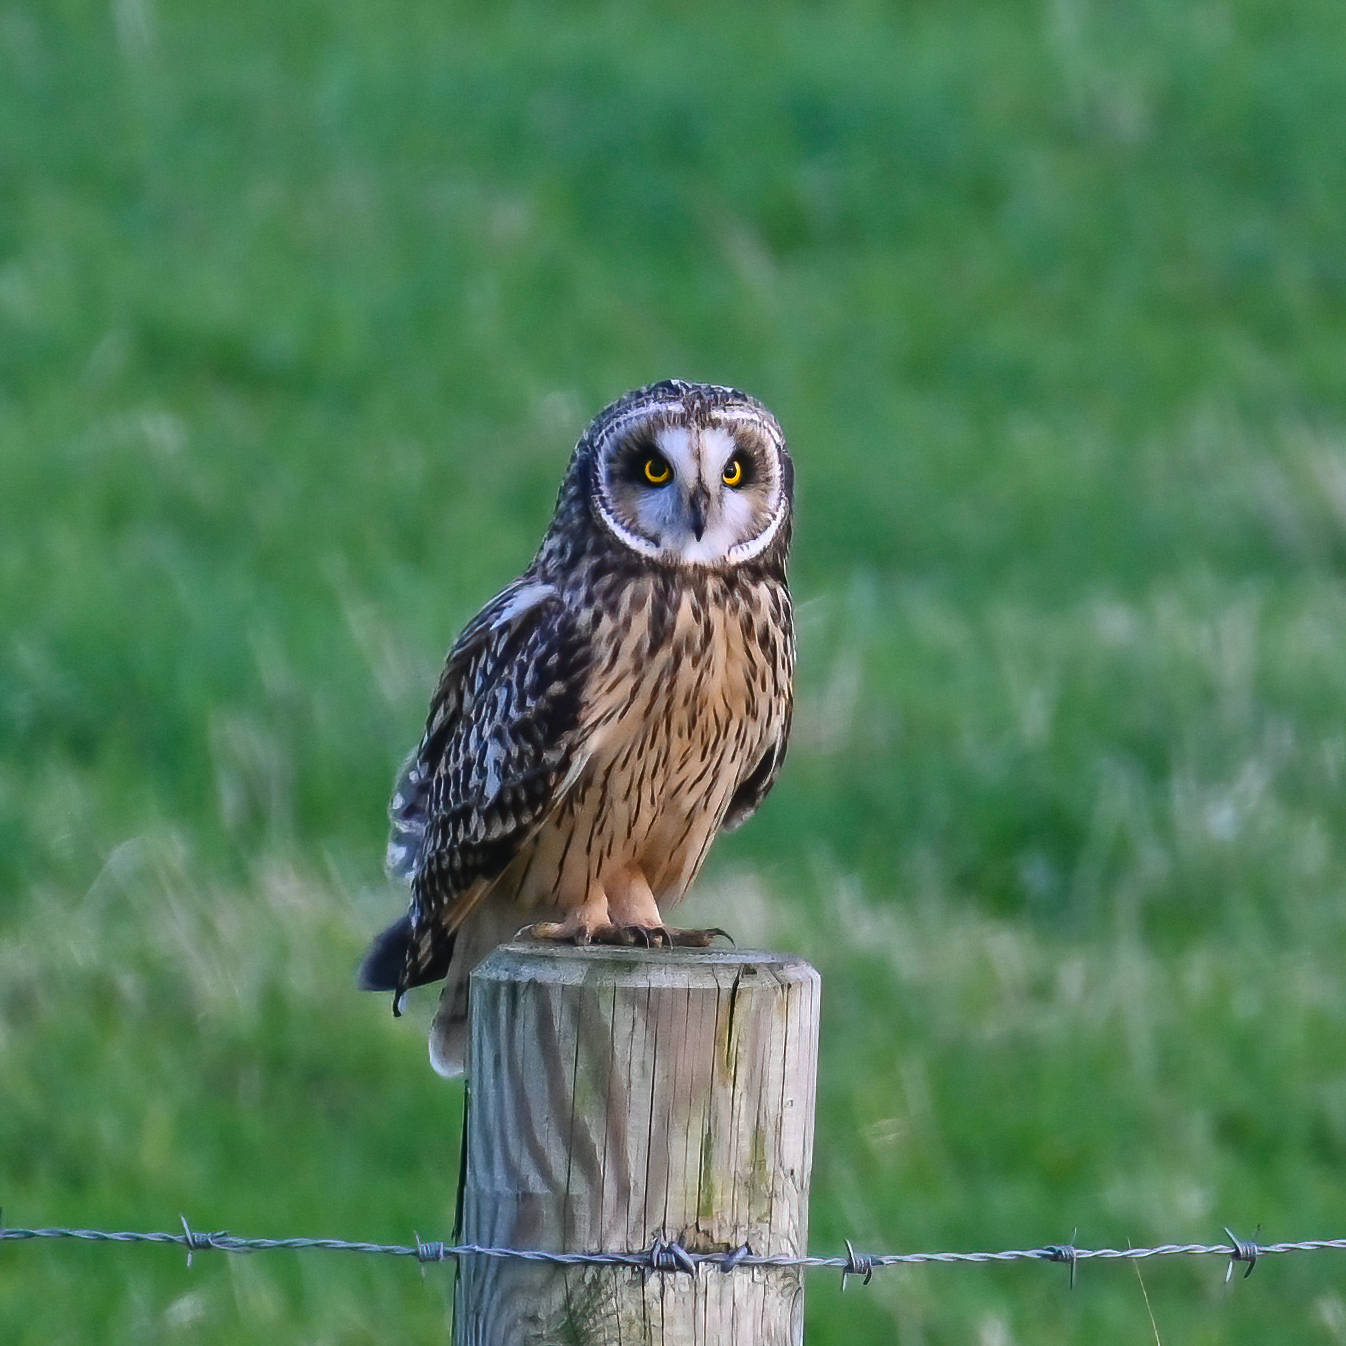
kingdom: Animalia
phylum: Chordata
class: Aves
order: Strigiformes
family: Strigidae
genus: Asio
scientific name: Asio flammeus
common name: Short-eared owl
